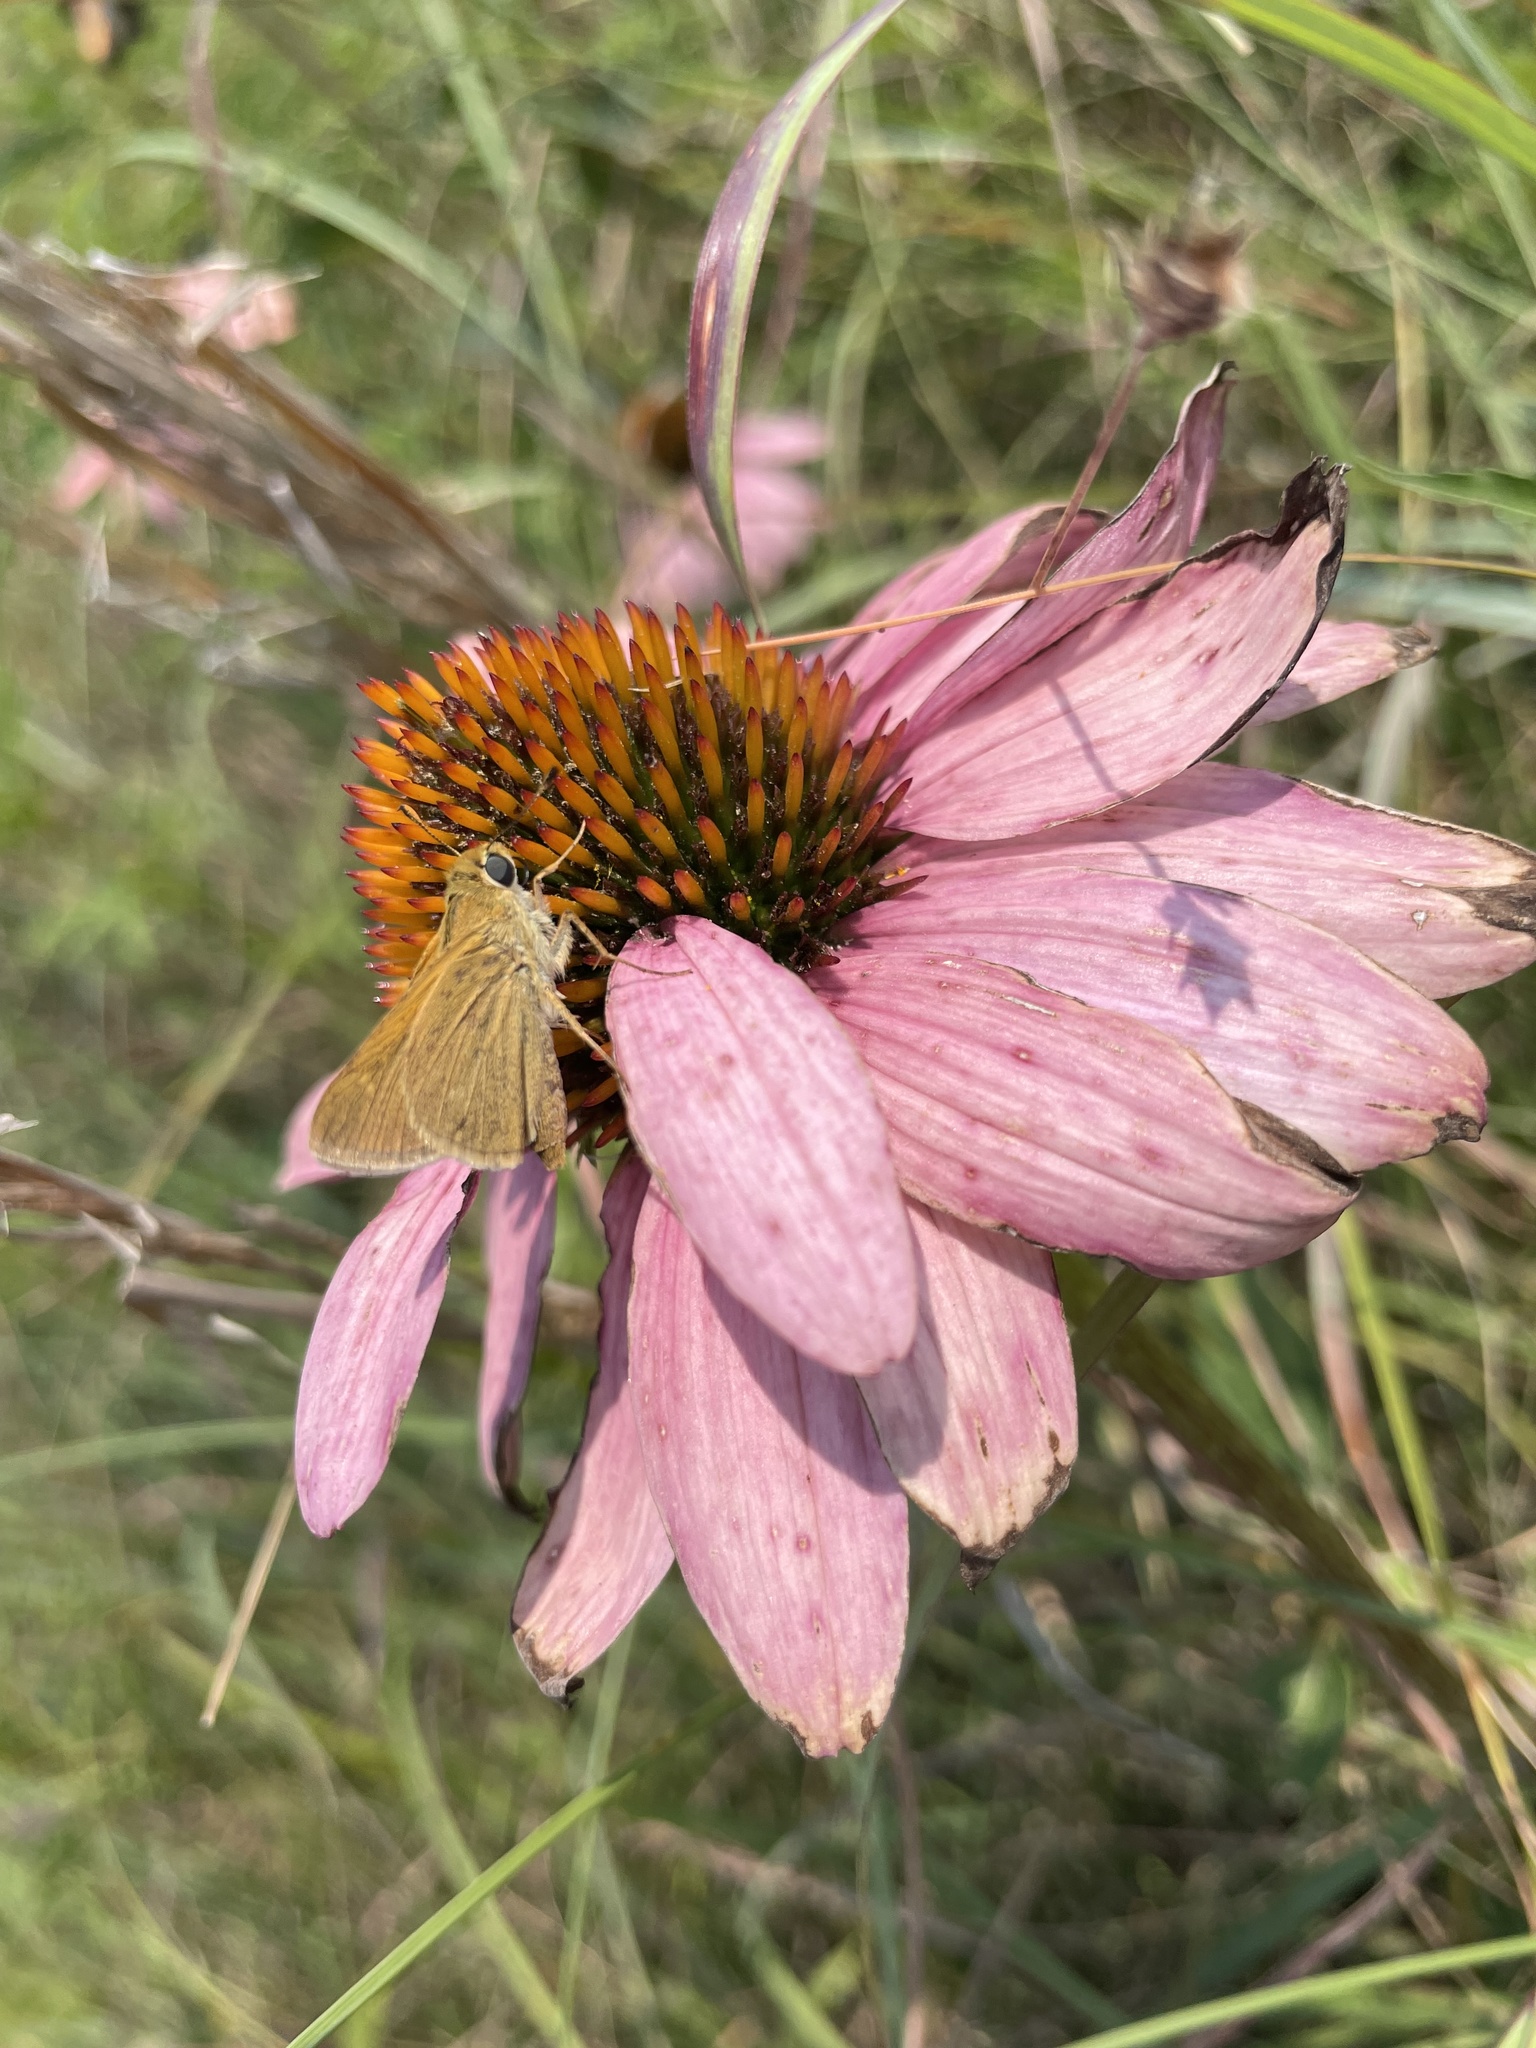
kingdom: Animalia
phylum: Arthropoda
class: Insecta
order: Lepidoptera
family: Hesperiidae
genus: Polites
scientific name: Polites themistocles
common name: Tawny-edged skipper
